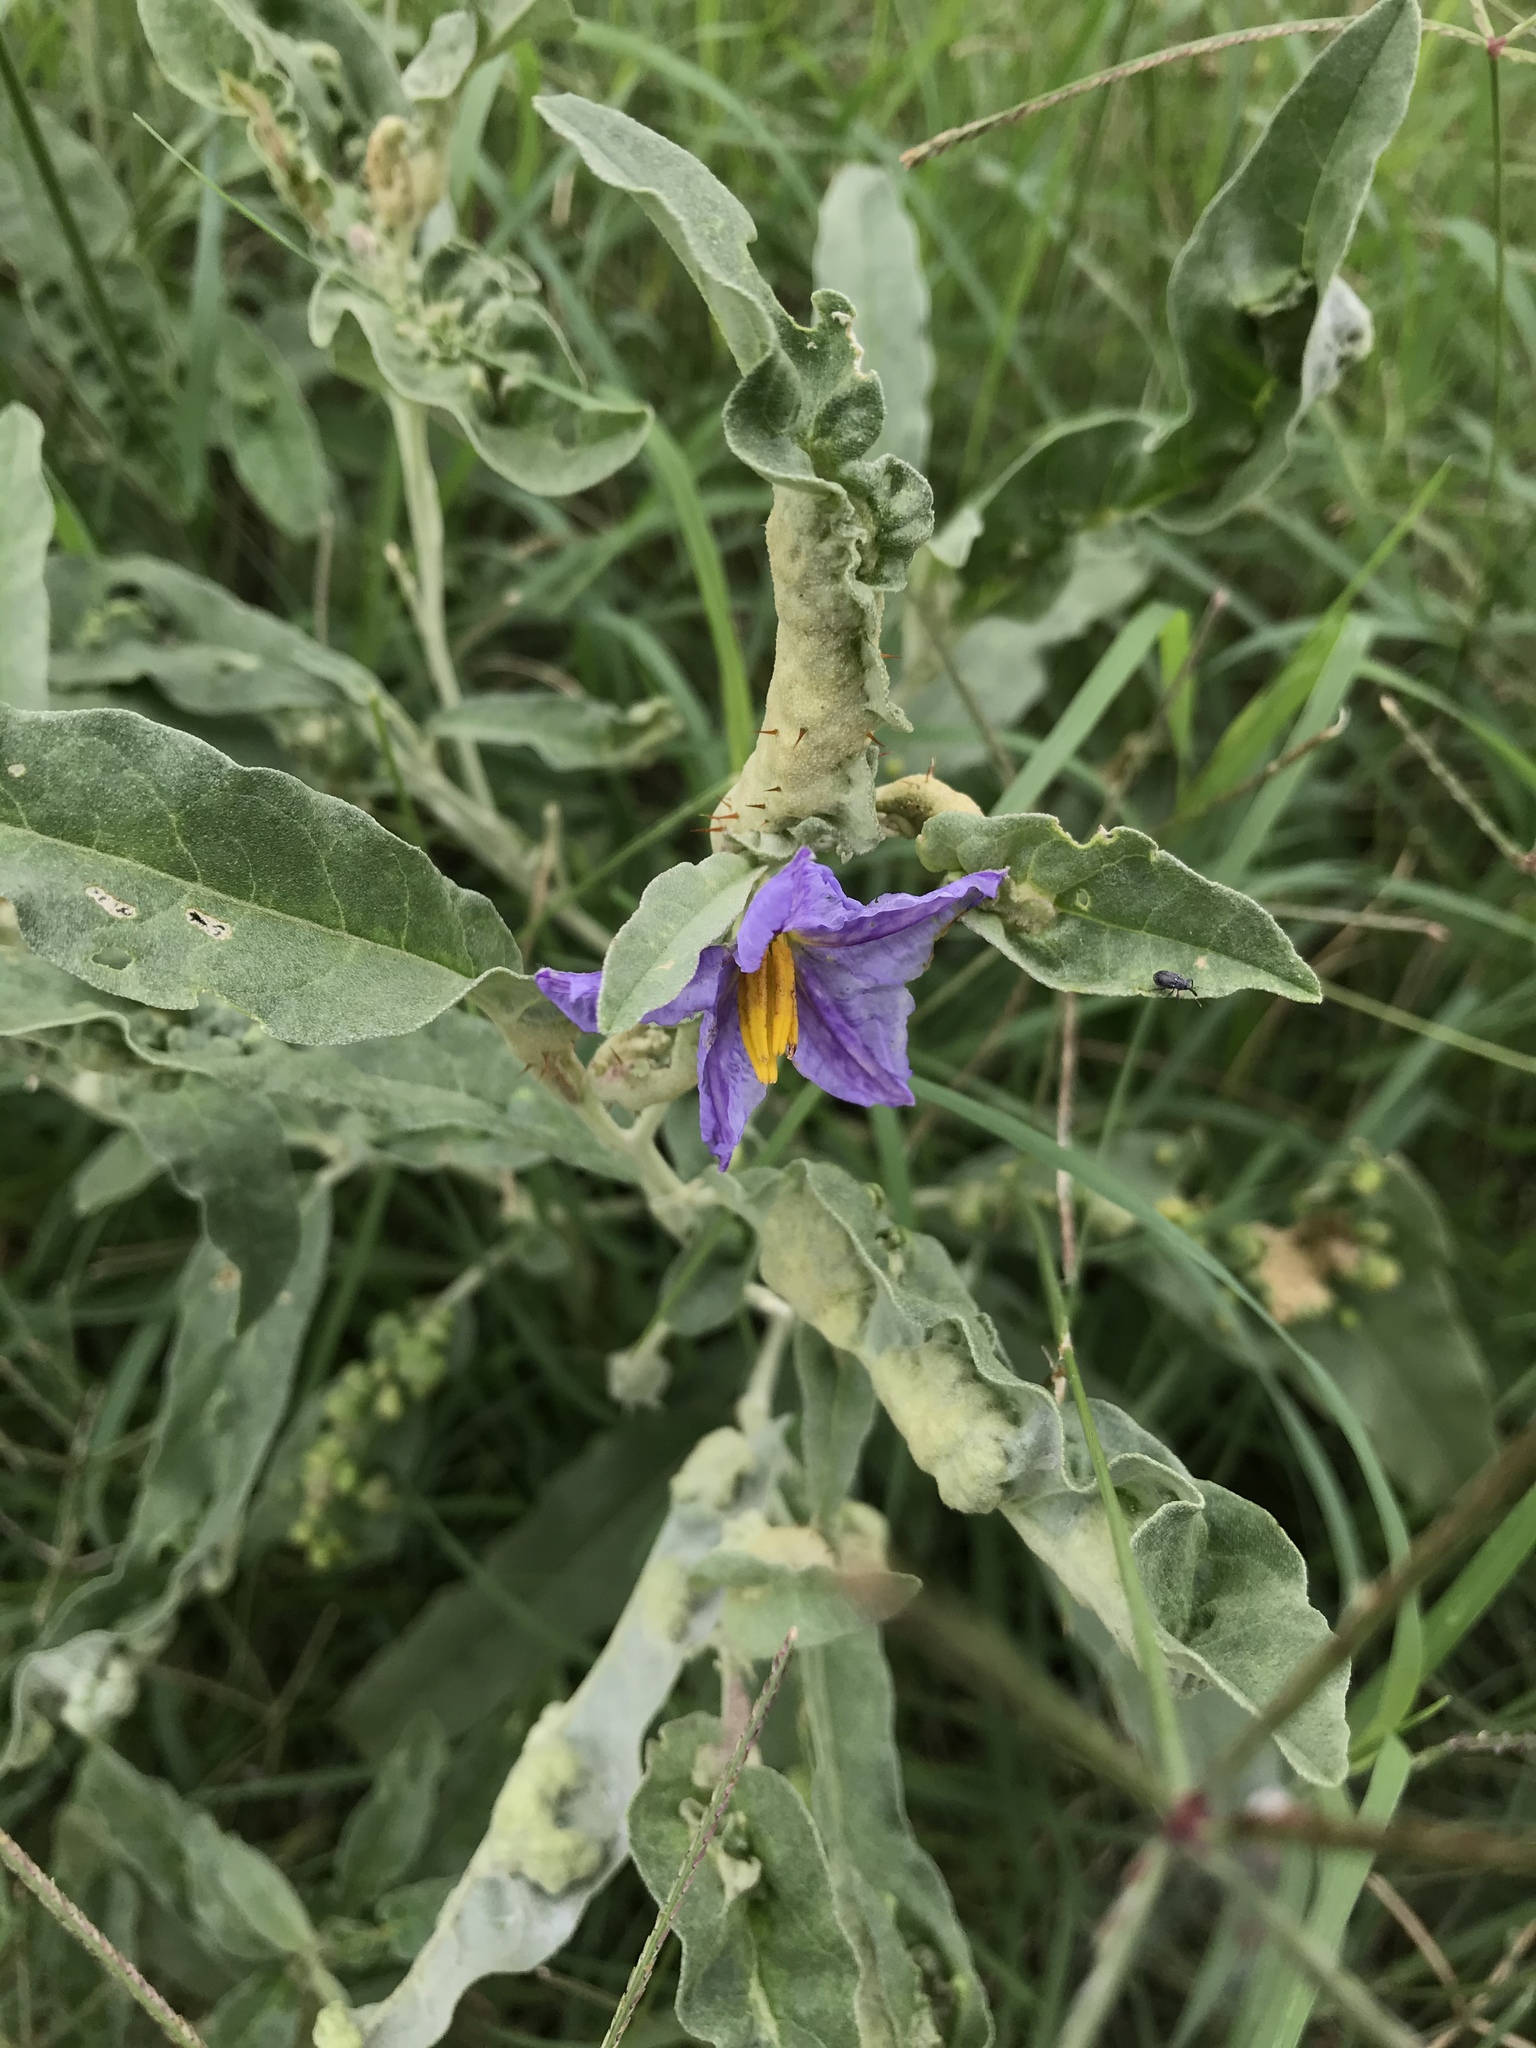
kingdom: Animalia
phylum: Nematoda
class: Chromadorea
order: Rhabditida
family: Anguinidae
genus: Ditylenchus
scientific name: Ditylenchus
